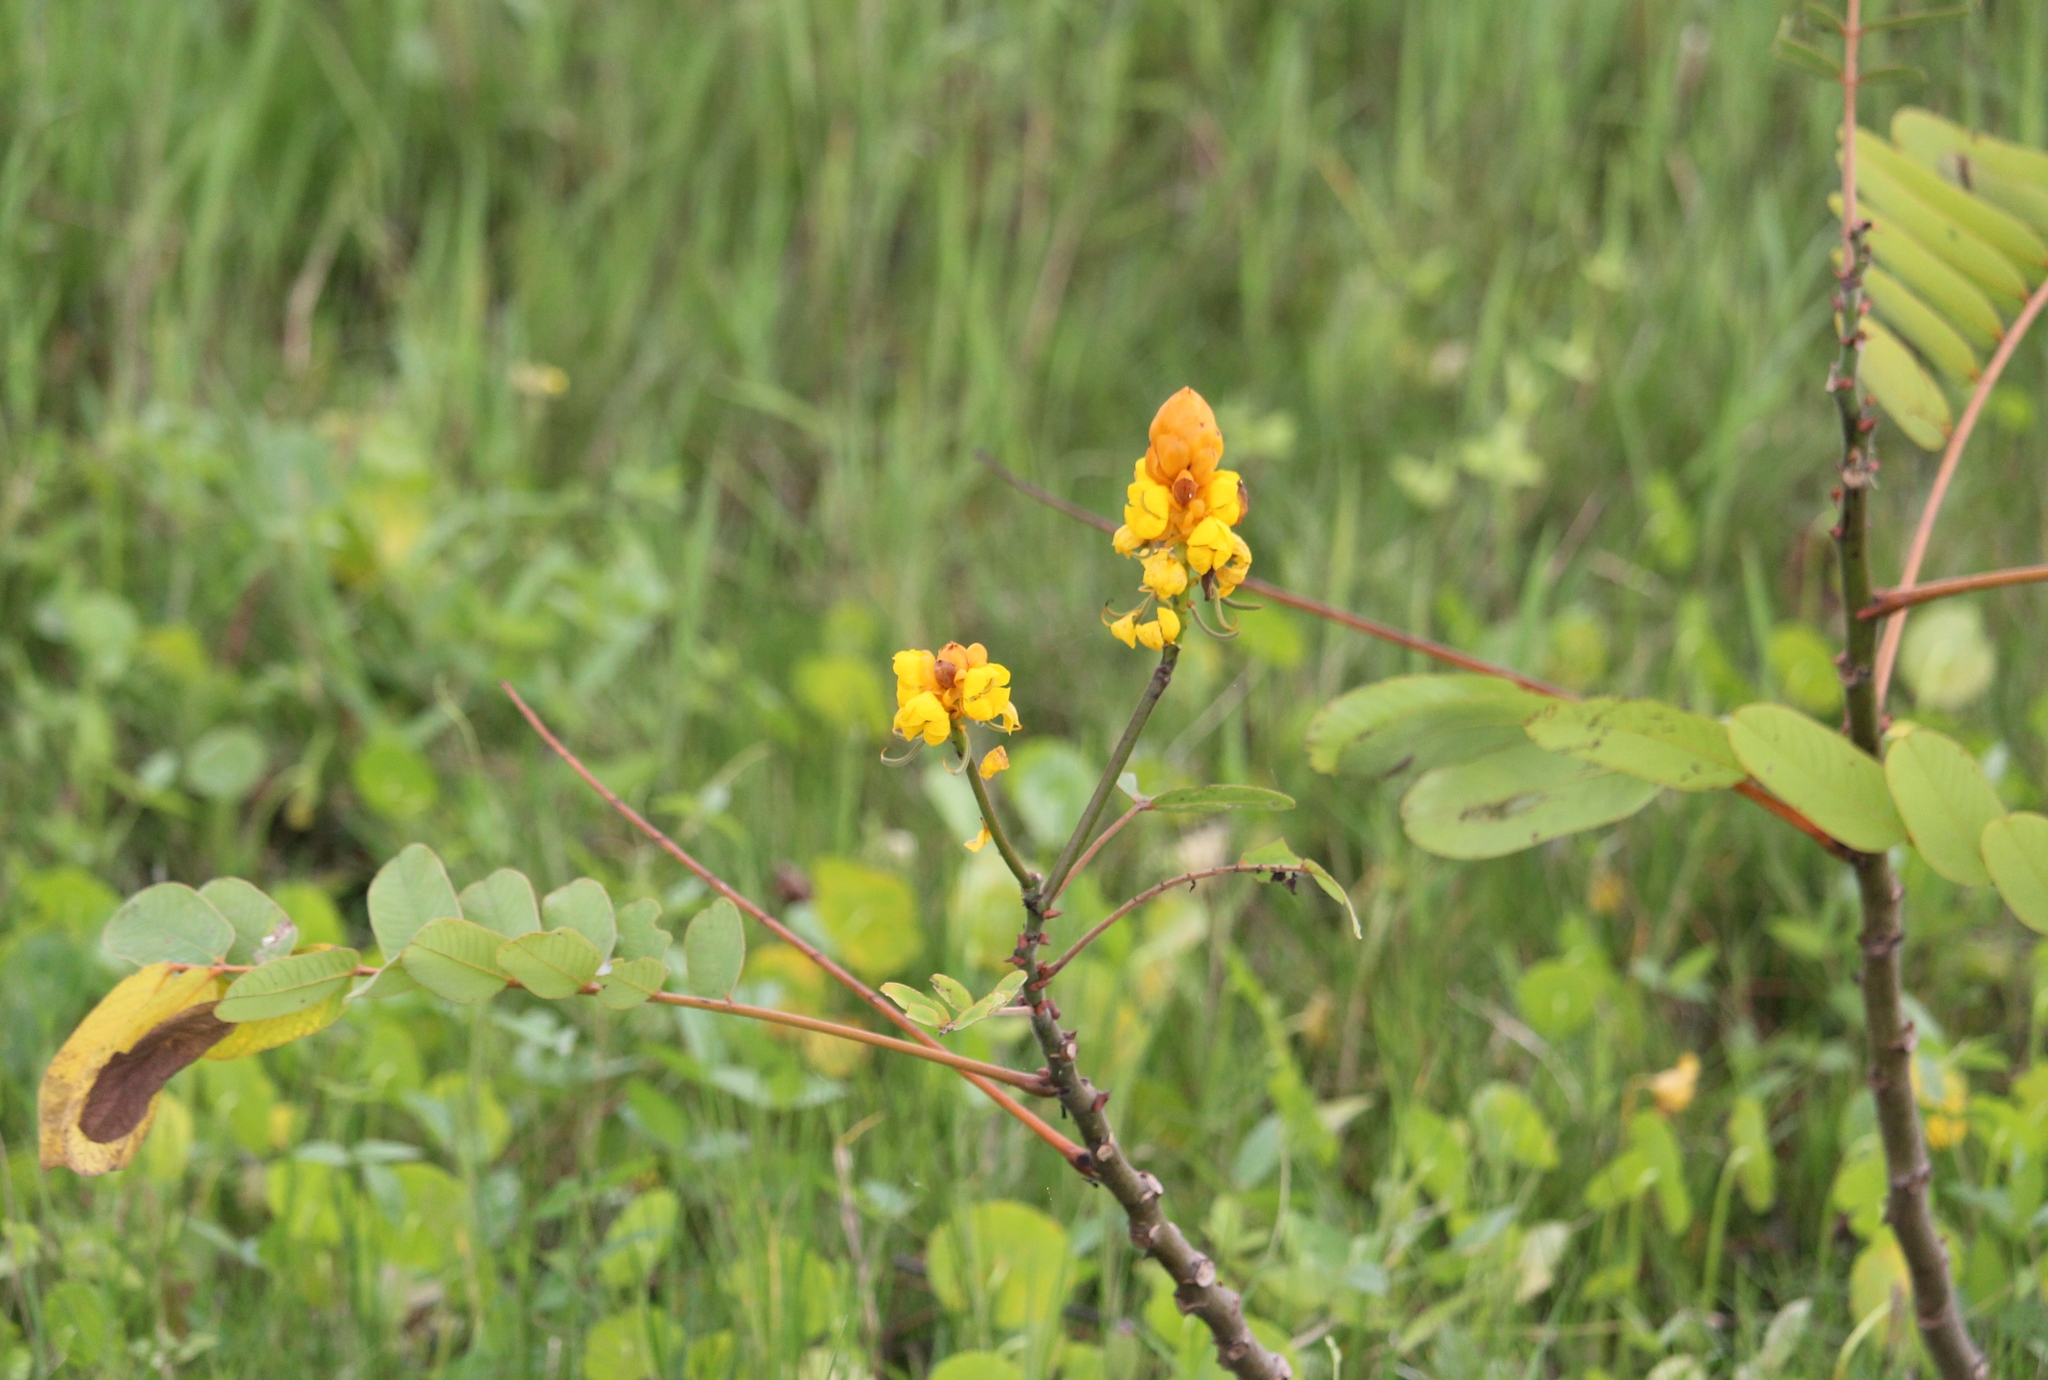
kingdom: Plantae
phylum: Tracheophyta
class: Magnoliopsida
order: Fabales
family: Fabaceae
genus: Senna
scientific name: Senna reticulata
